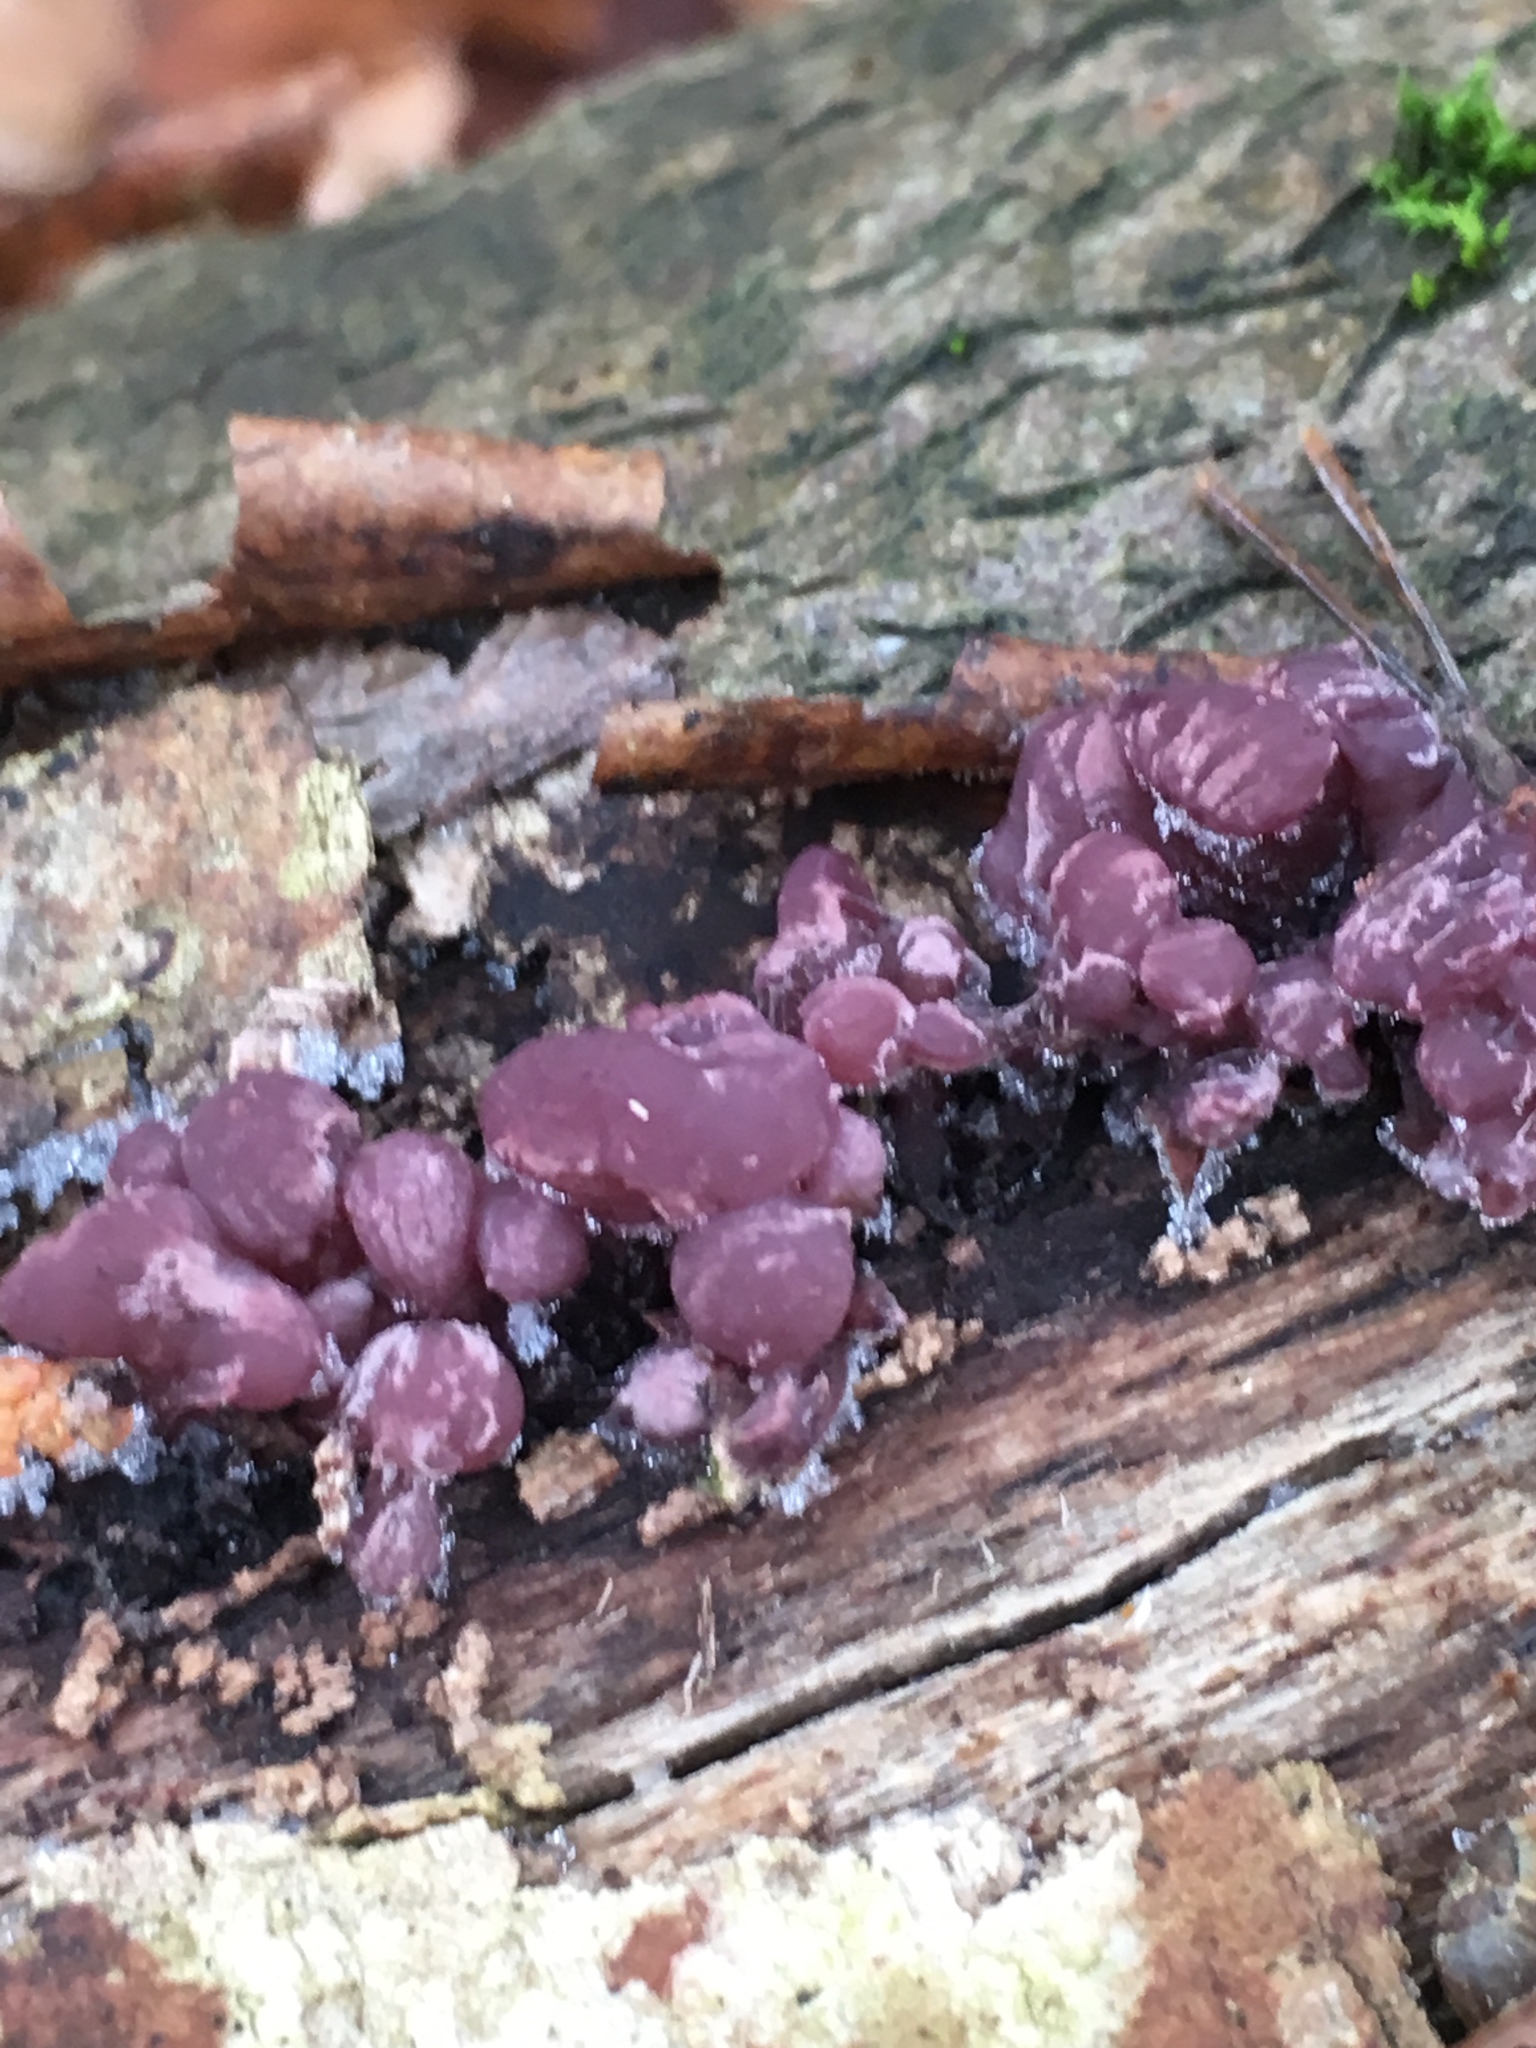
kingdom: Fungi
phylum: Ascomycota
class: Leotiomycetes
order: Helotiales
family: Gelatinodiscaceae
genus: Ascocoryne
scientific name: Ascocoryne sarcoides
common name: Purple jellydisc
